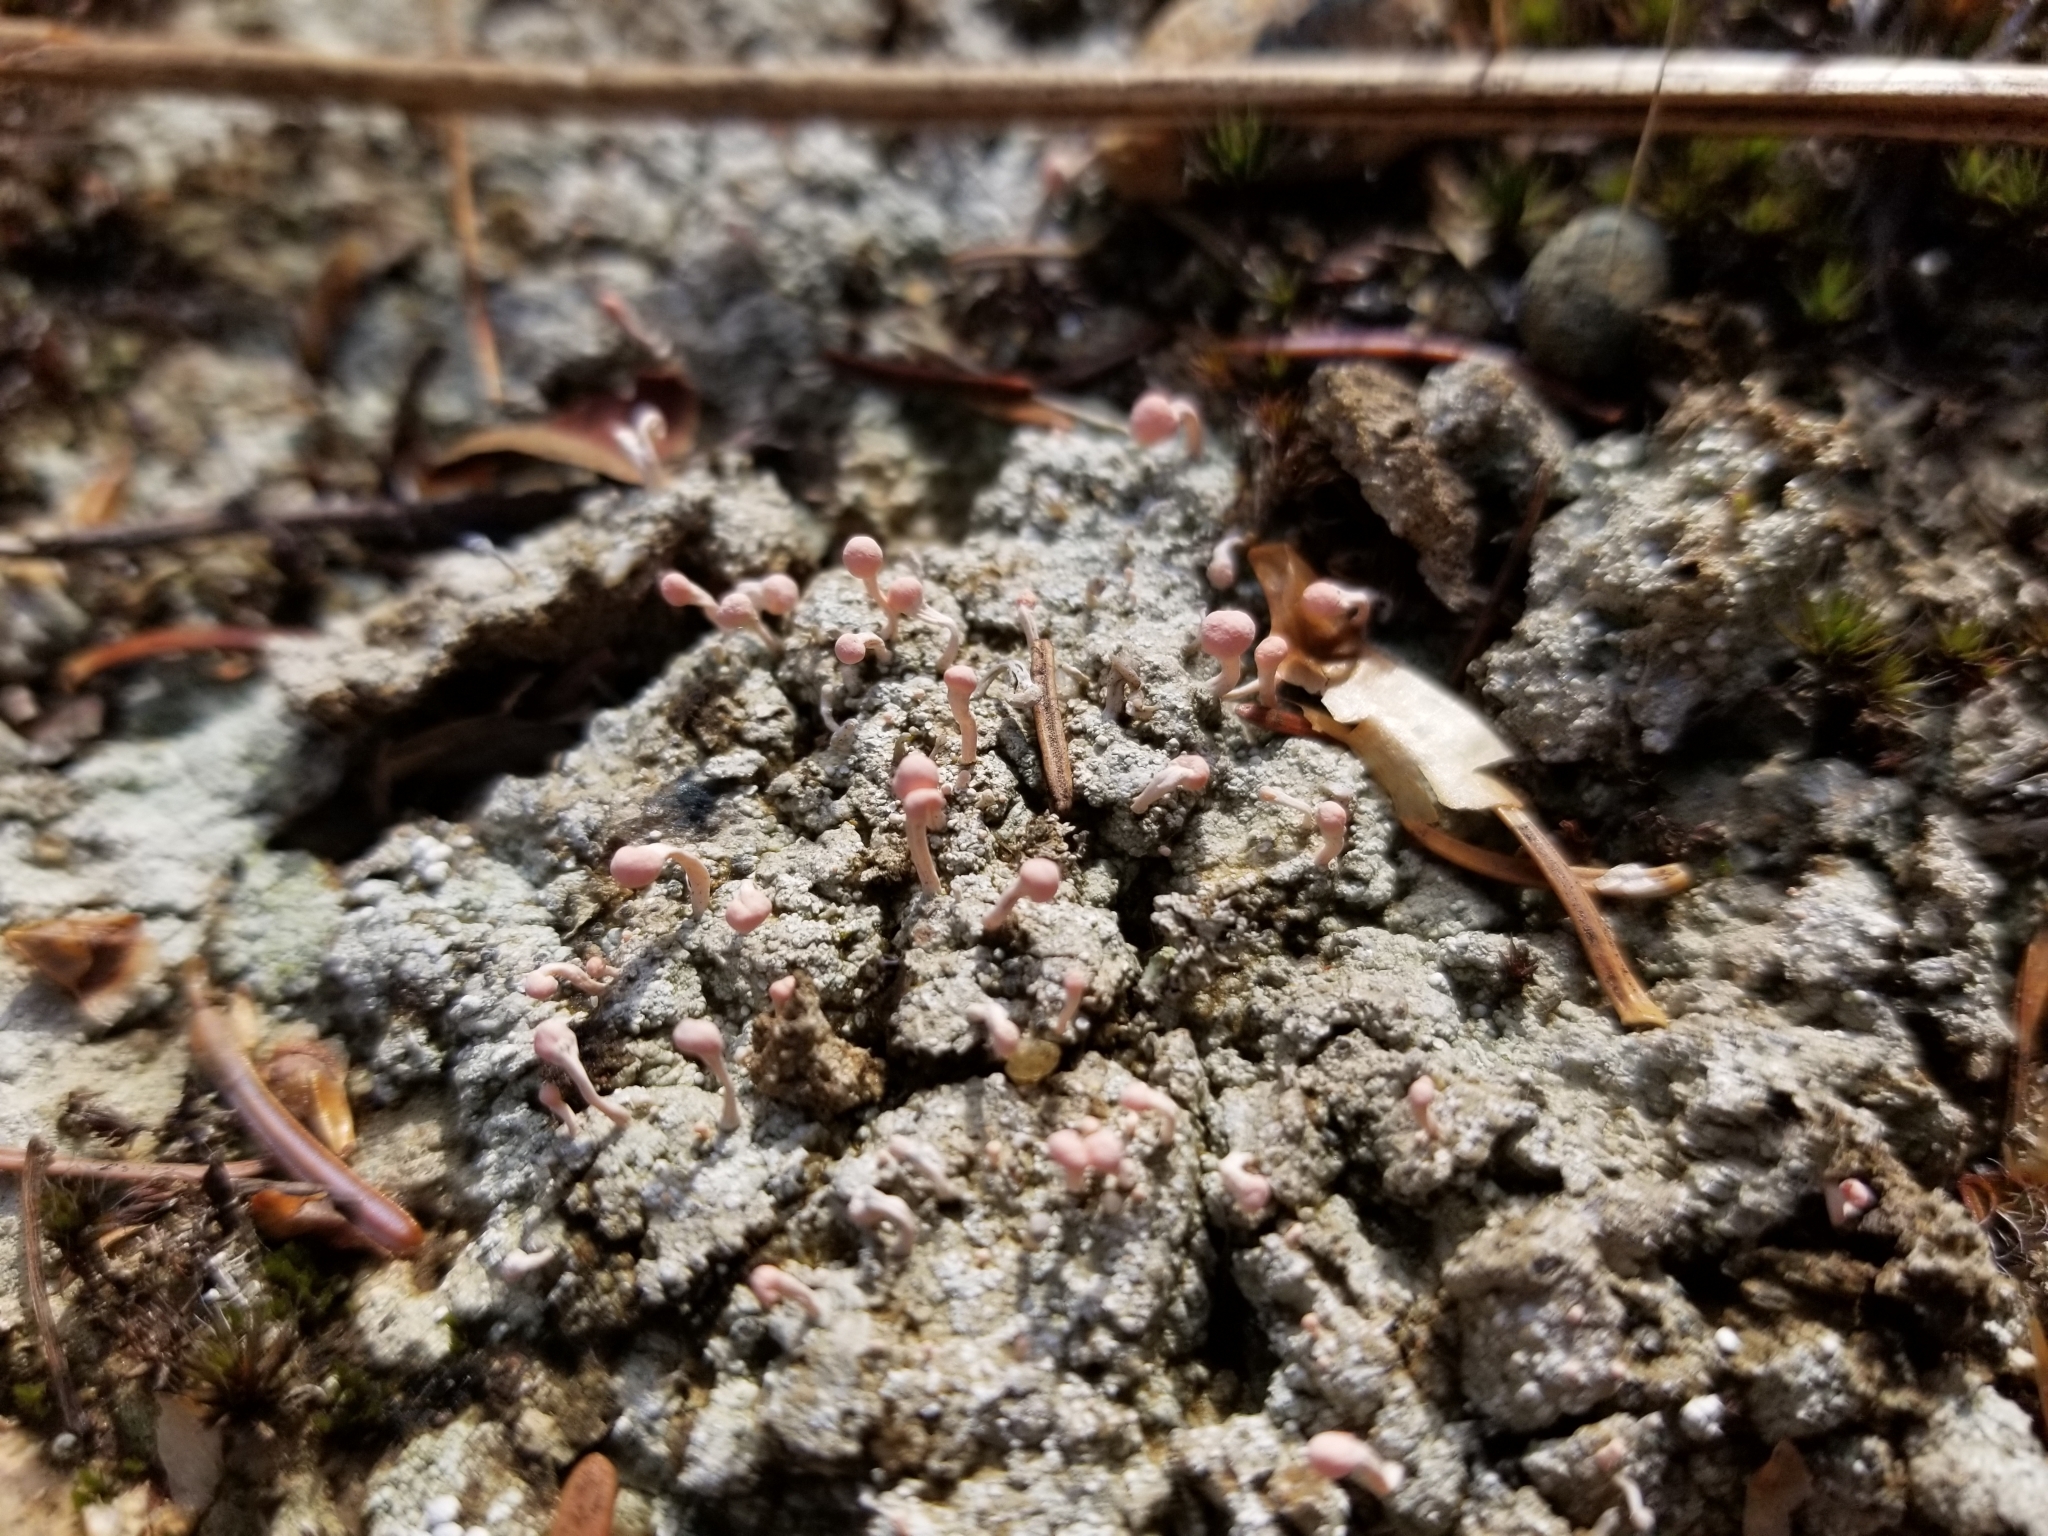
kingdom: Fungi
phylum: Ascomycota
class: Lecanoromycetes
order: Pertusariales
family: Icmadophilaceae
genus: Dibaeis
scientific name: Dibaeis baeomyces
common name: Pink earth lichen
